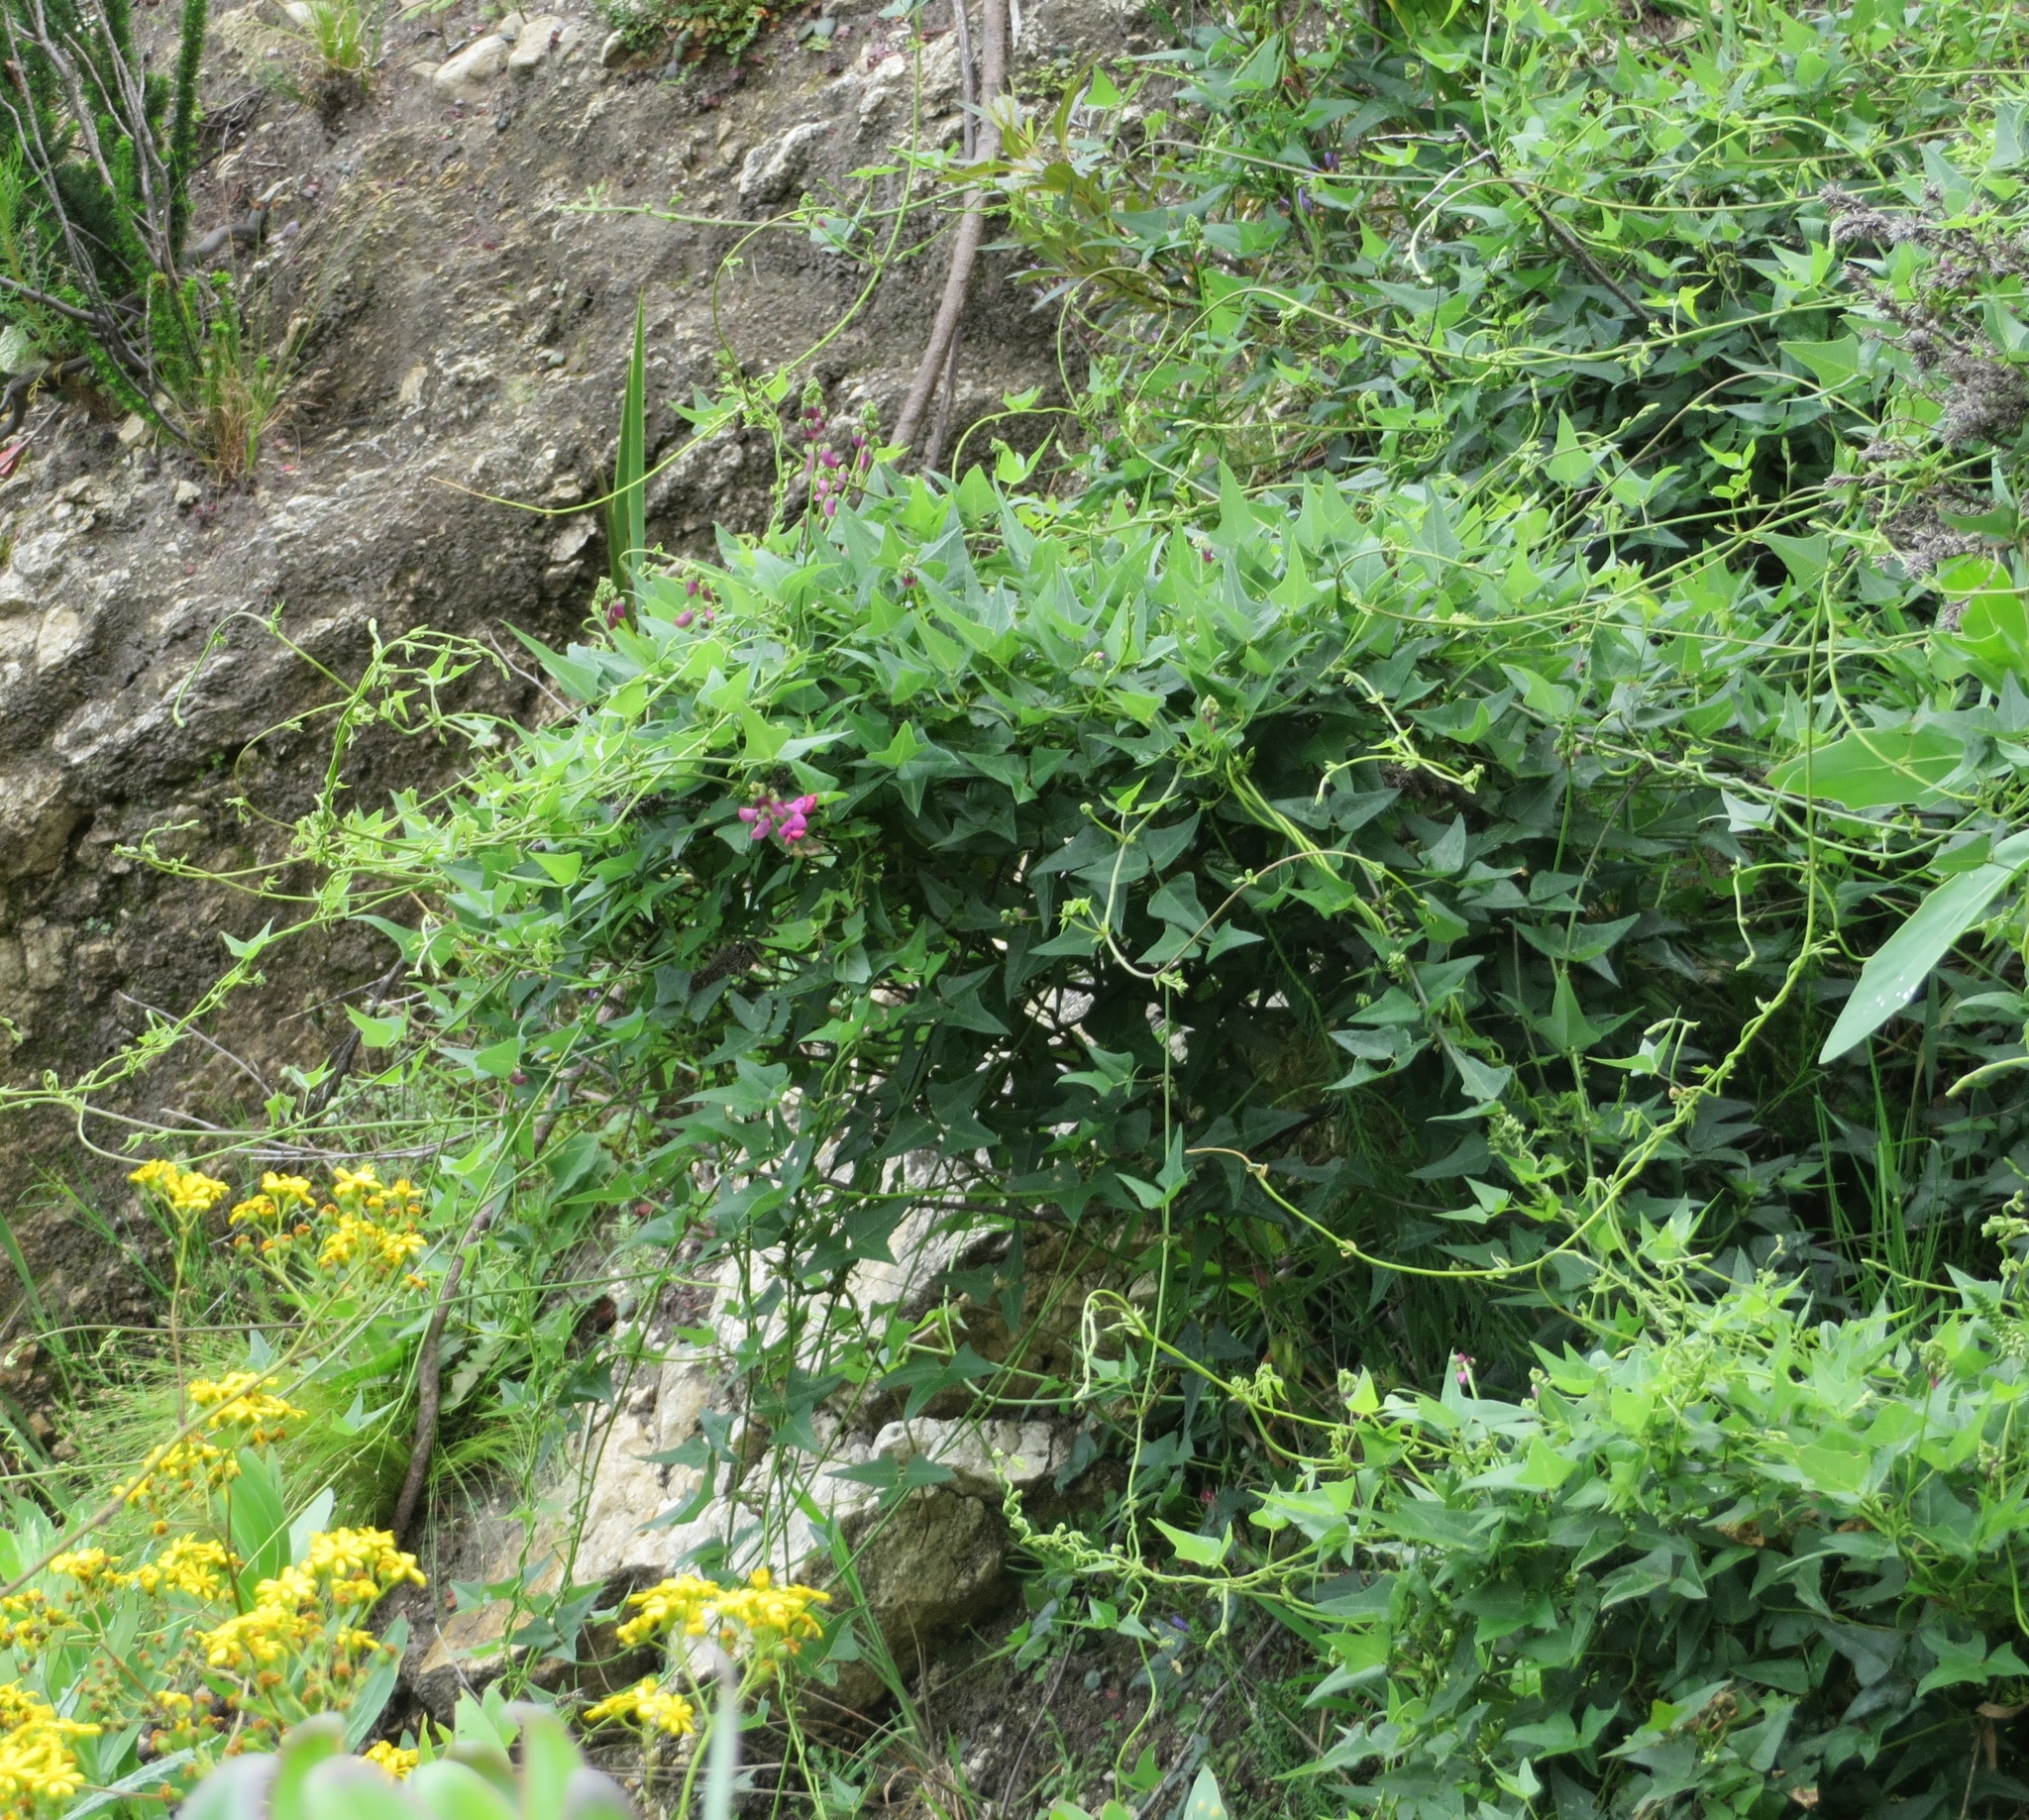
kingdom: Plantae
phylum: Tracheophyta
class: Magnoliopsida
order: Fabales
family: Fabaceae
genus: Dipogon
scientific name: Dipogon lignosus
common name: Okie bean
